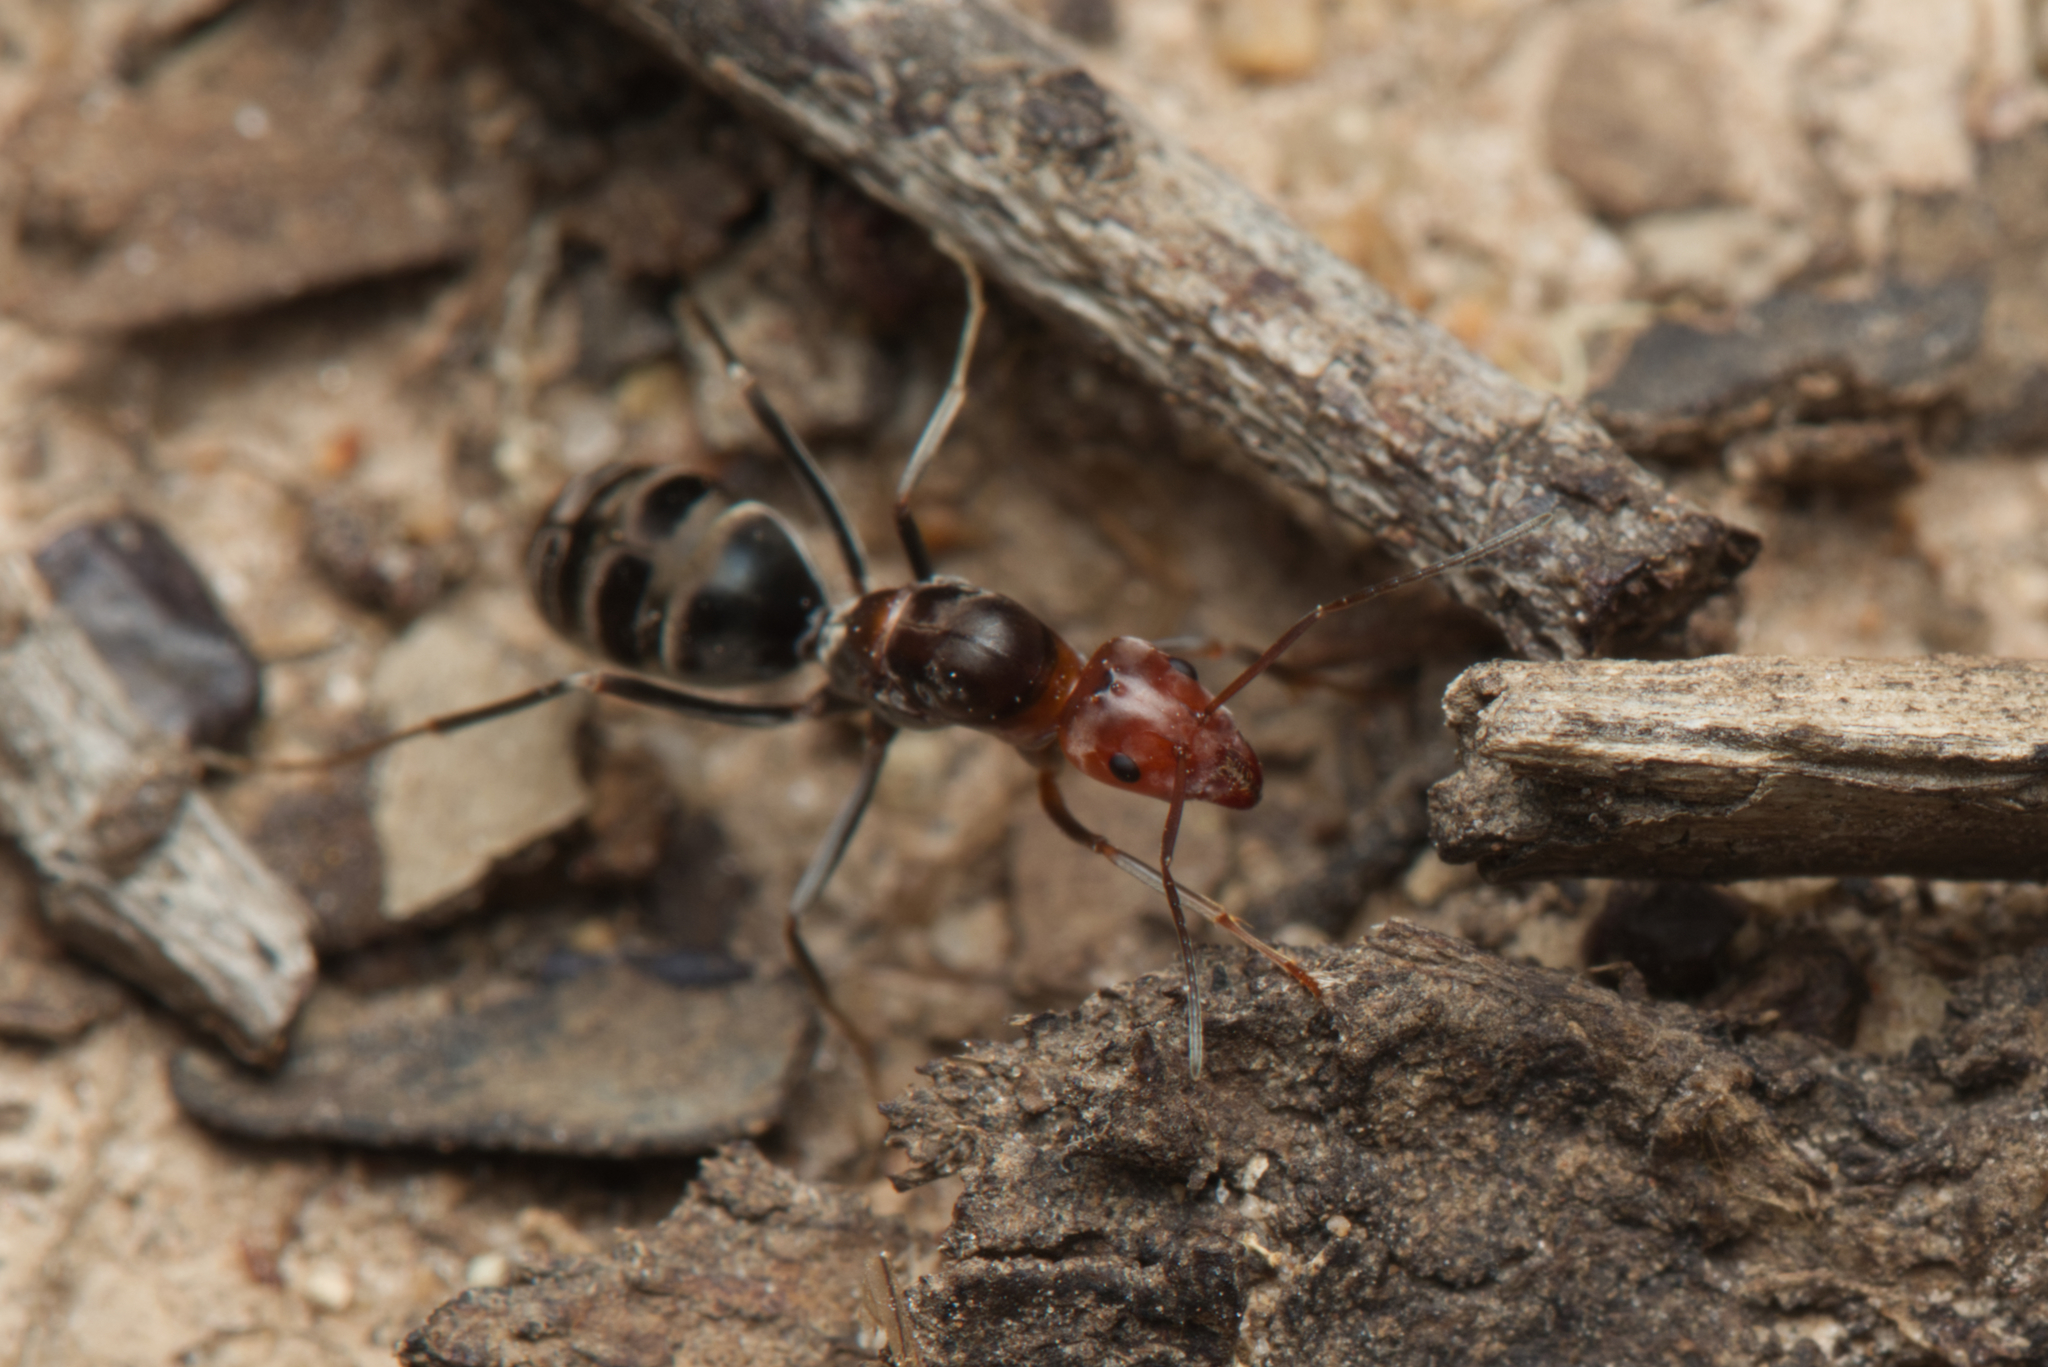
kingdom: Animalia
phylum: Arthropoda
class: Insecta
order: Hymenoptera
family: Formicidae
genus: Iridomyrmex
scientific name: Iridomyrmex
